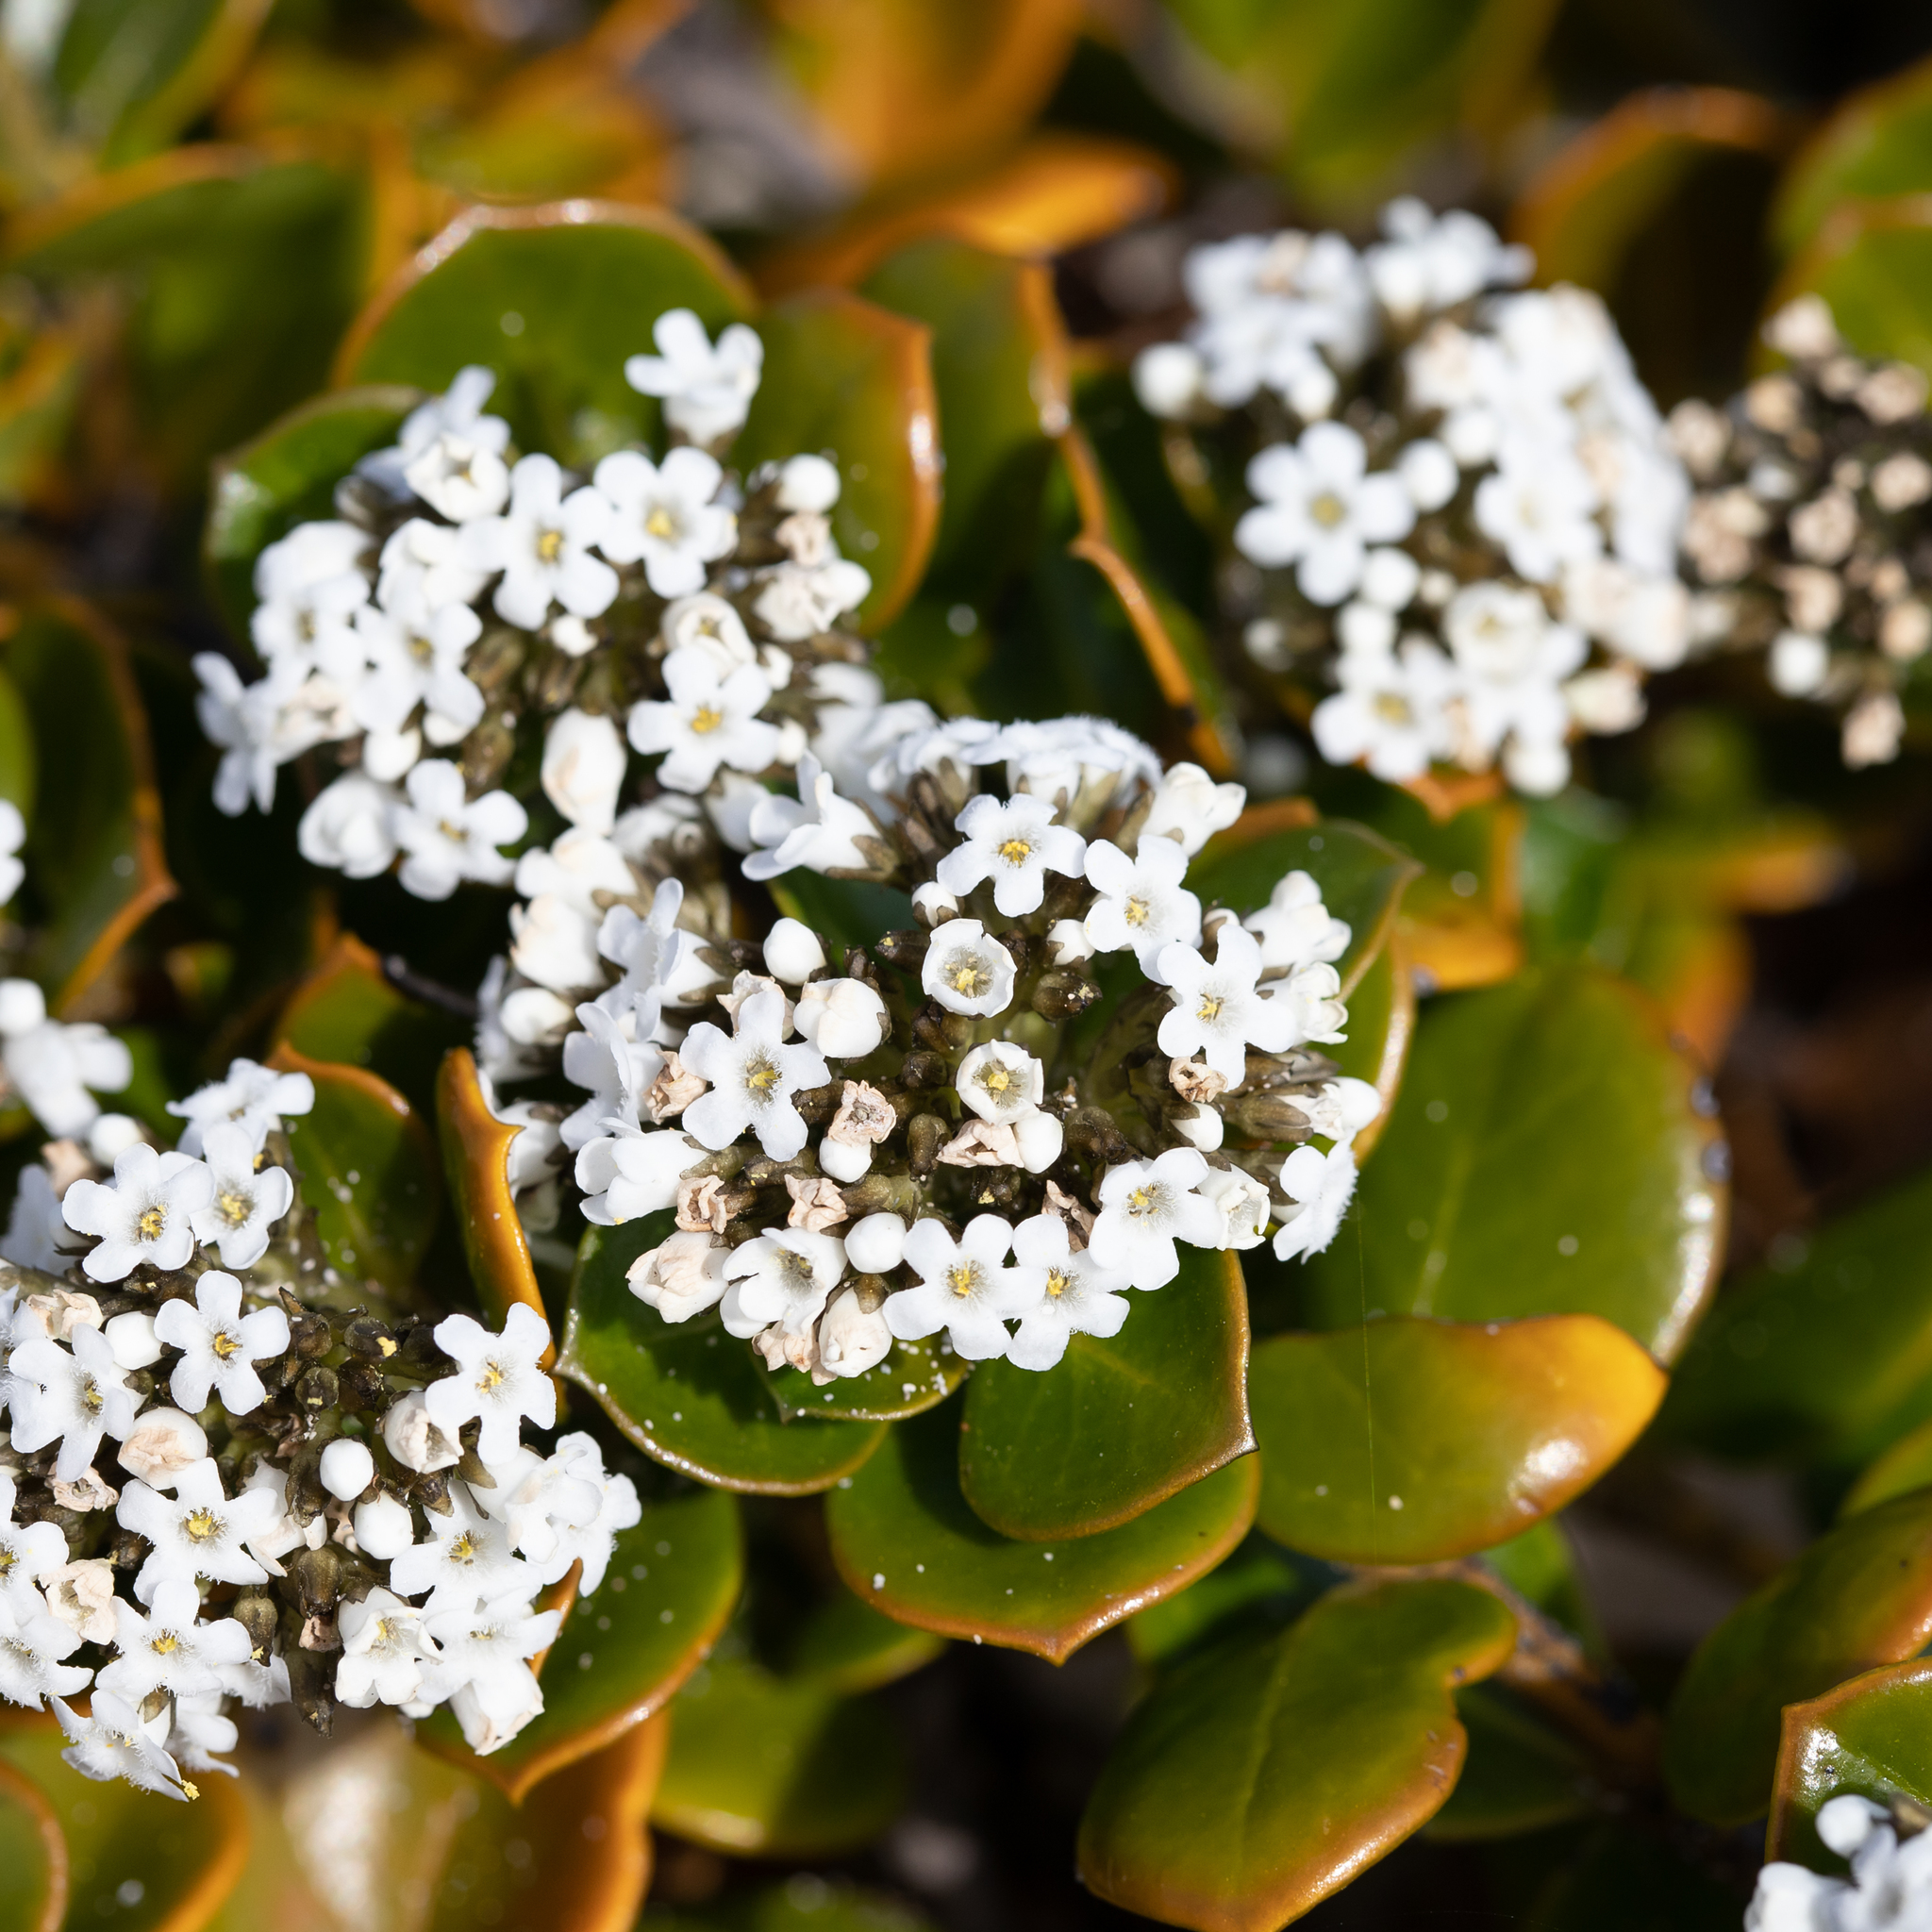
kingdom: Plantae
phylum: Tracheophyta
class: Magnoliopsida
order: Gentianales
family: Loganiaceae
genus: Logania
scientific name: Logania crassifolia
